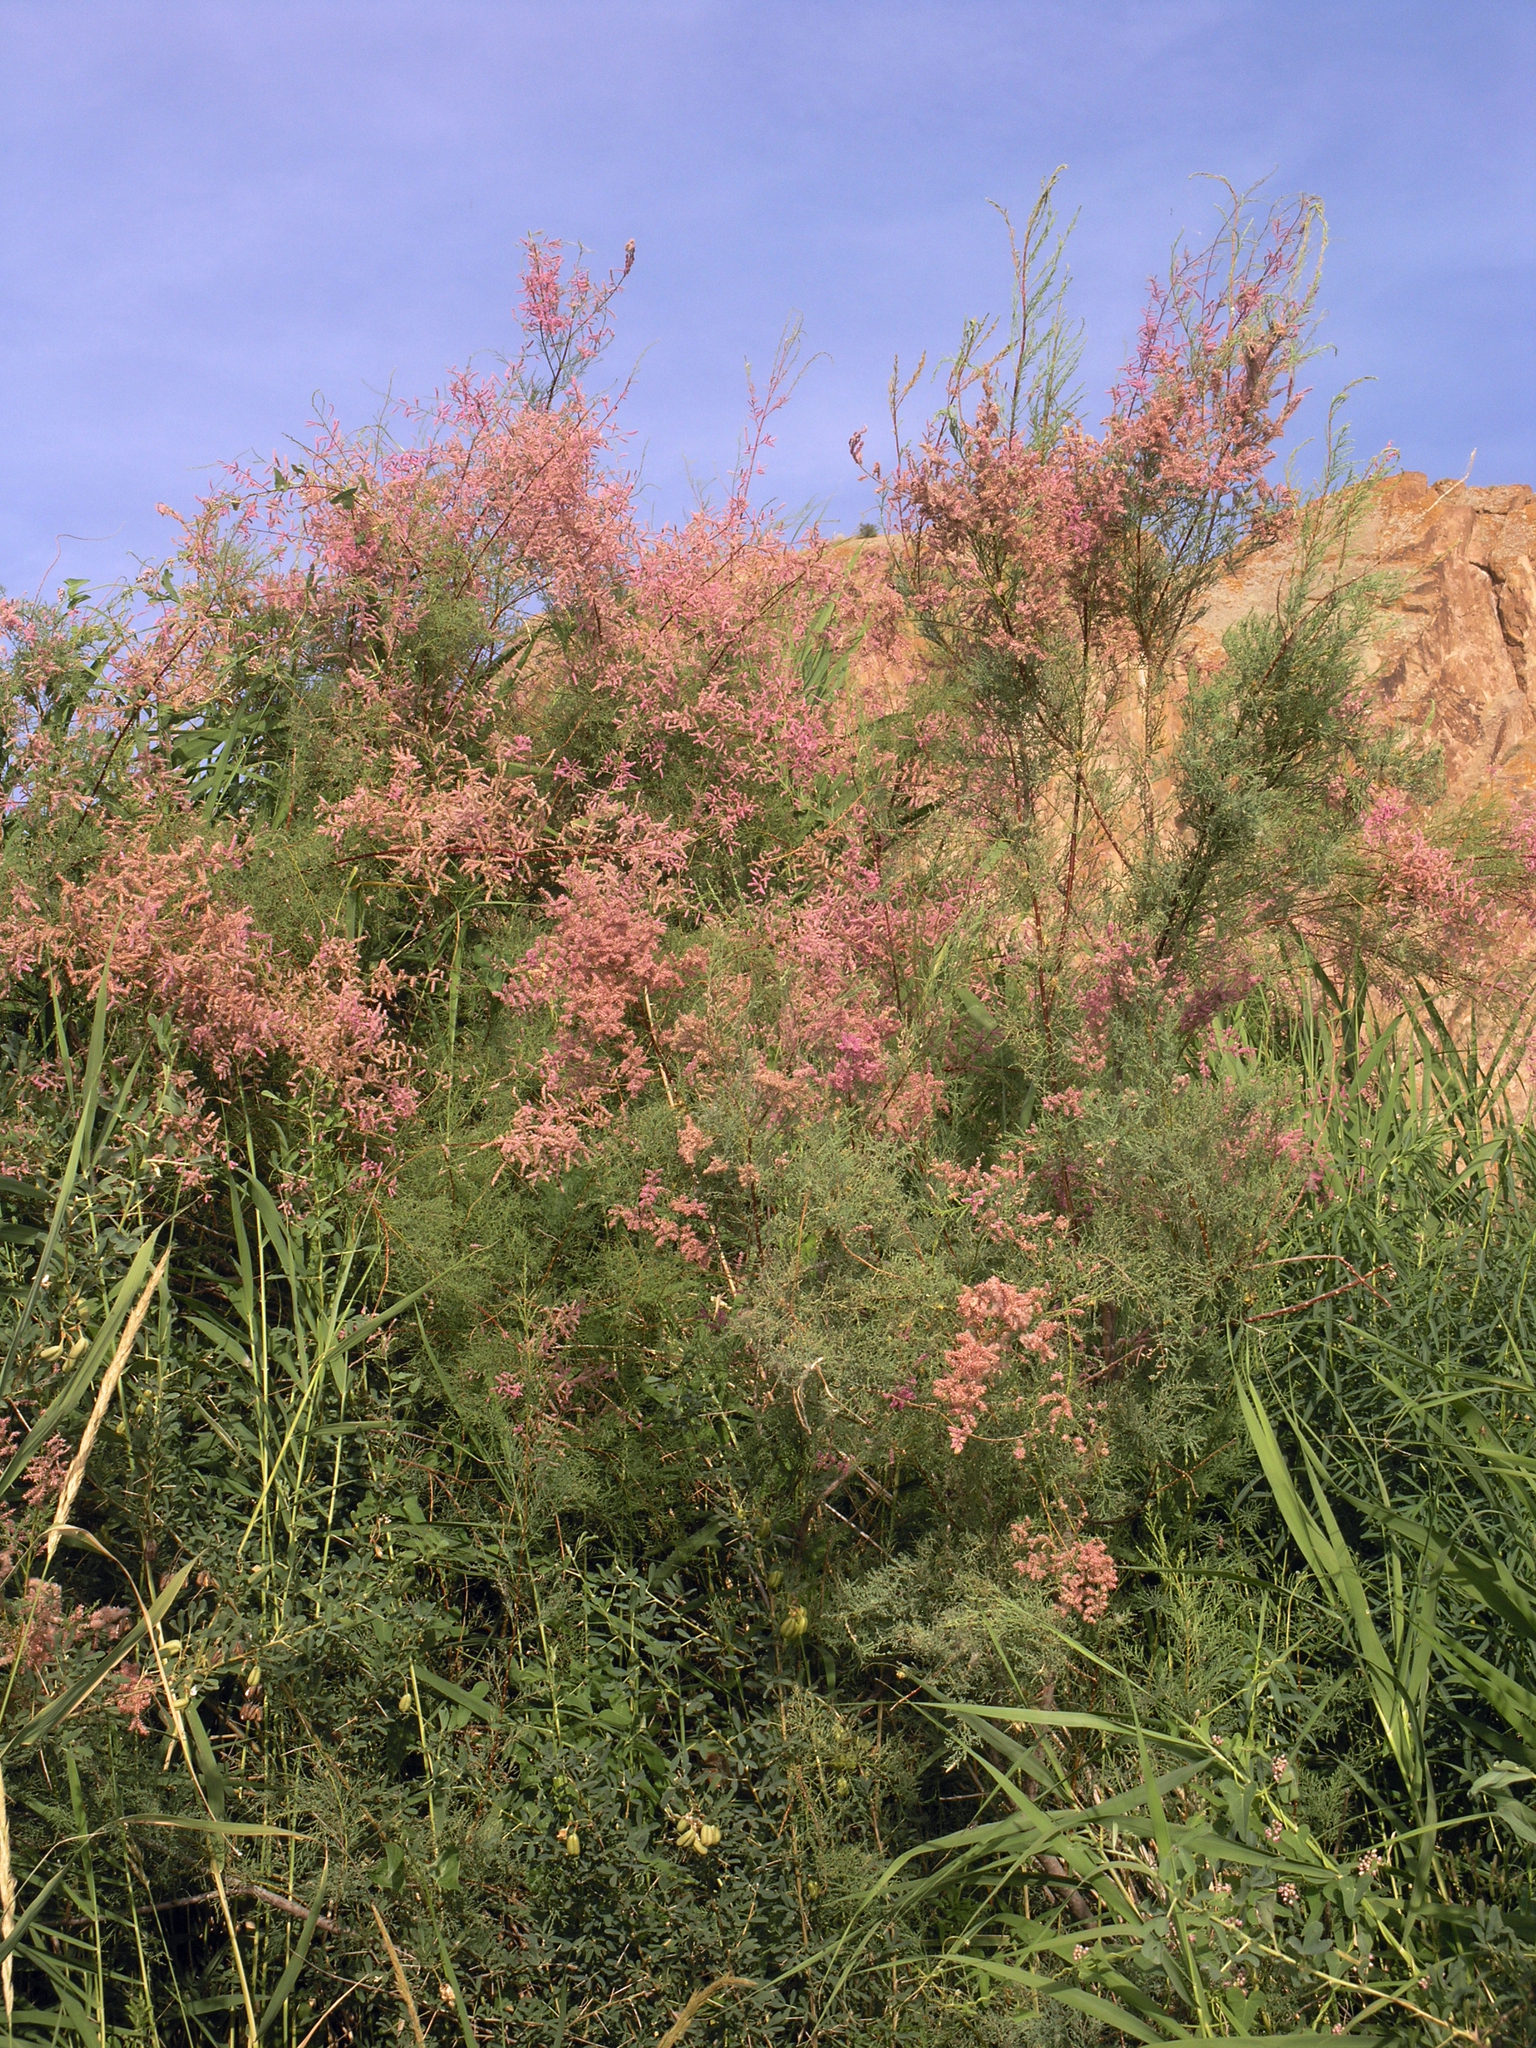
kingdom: Plantae
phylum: Tracheophyta
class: Magnoliopsida
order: Caryophyllales
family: Tamaricaceae
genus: Tamarix
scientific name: Tamarix ramosissima
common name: Pink tamarisk
